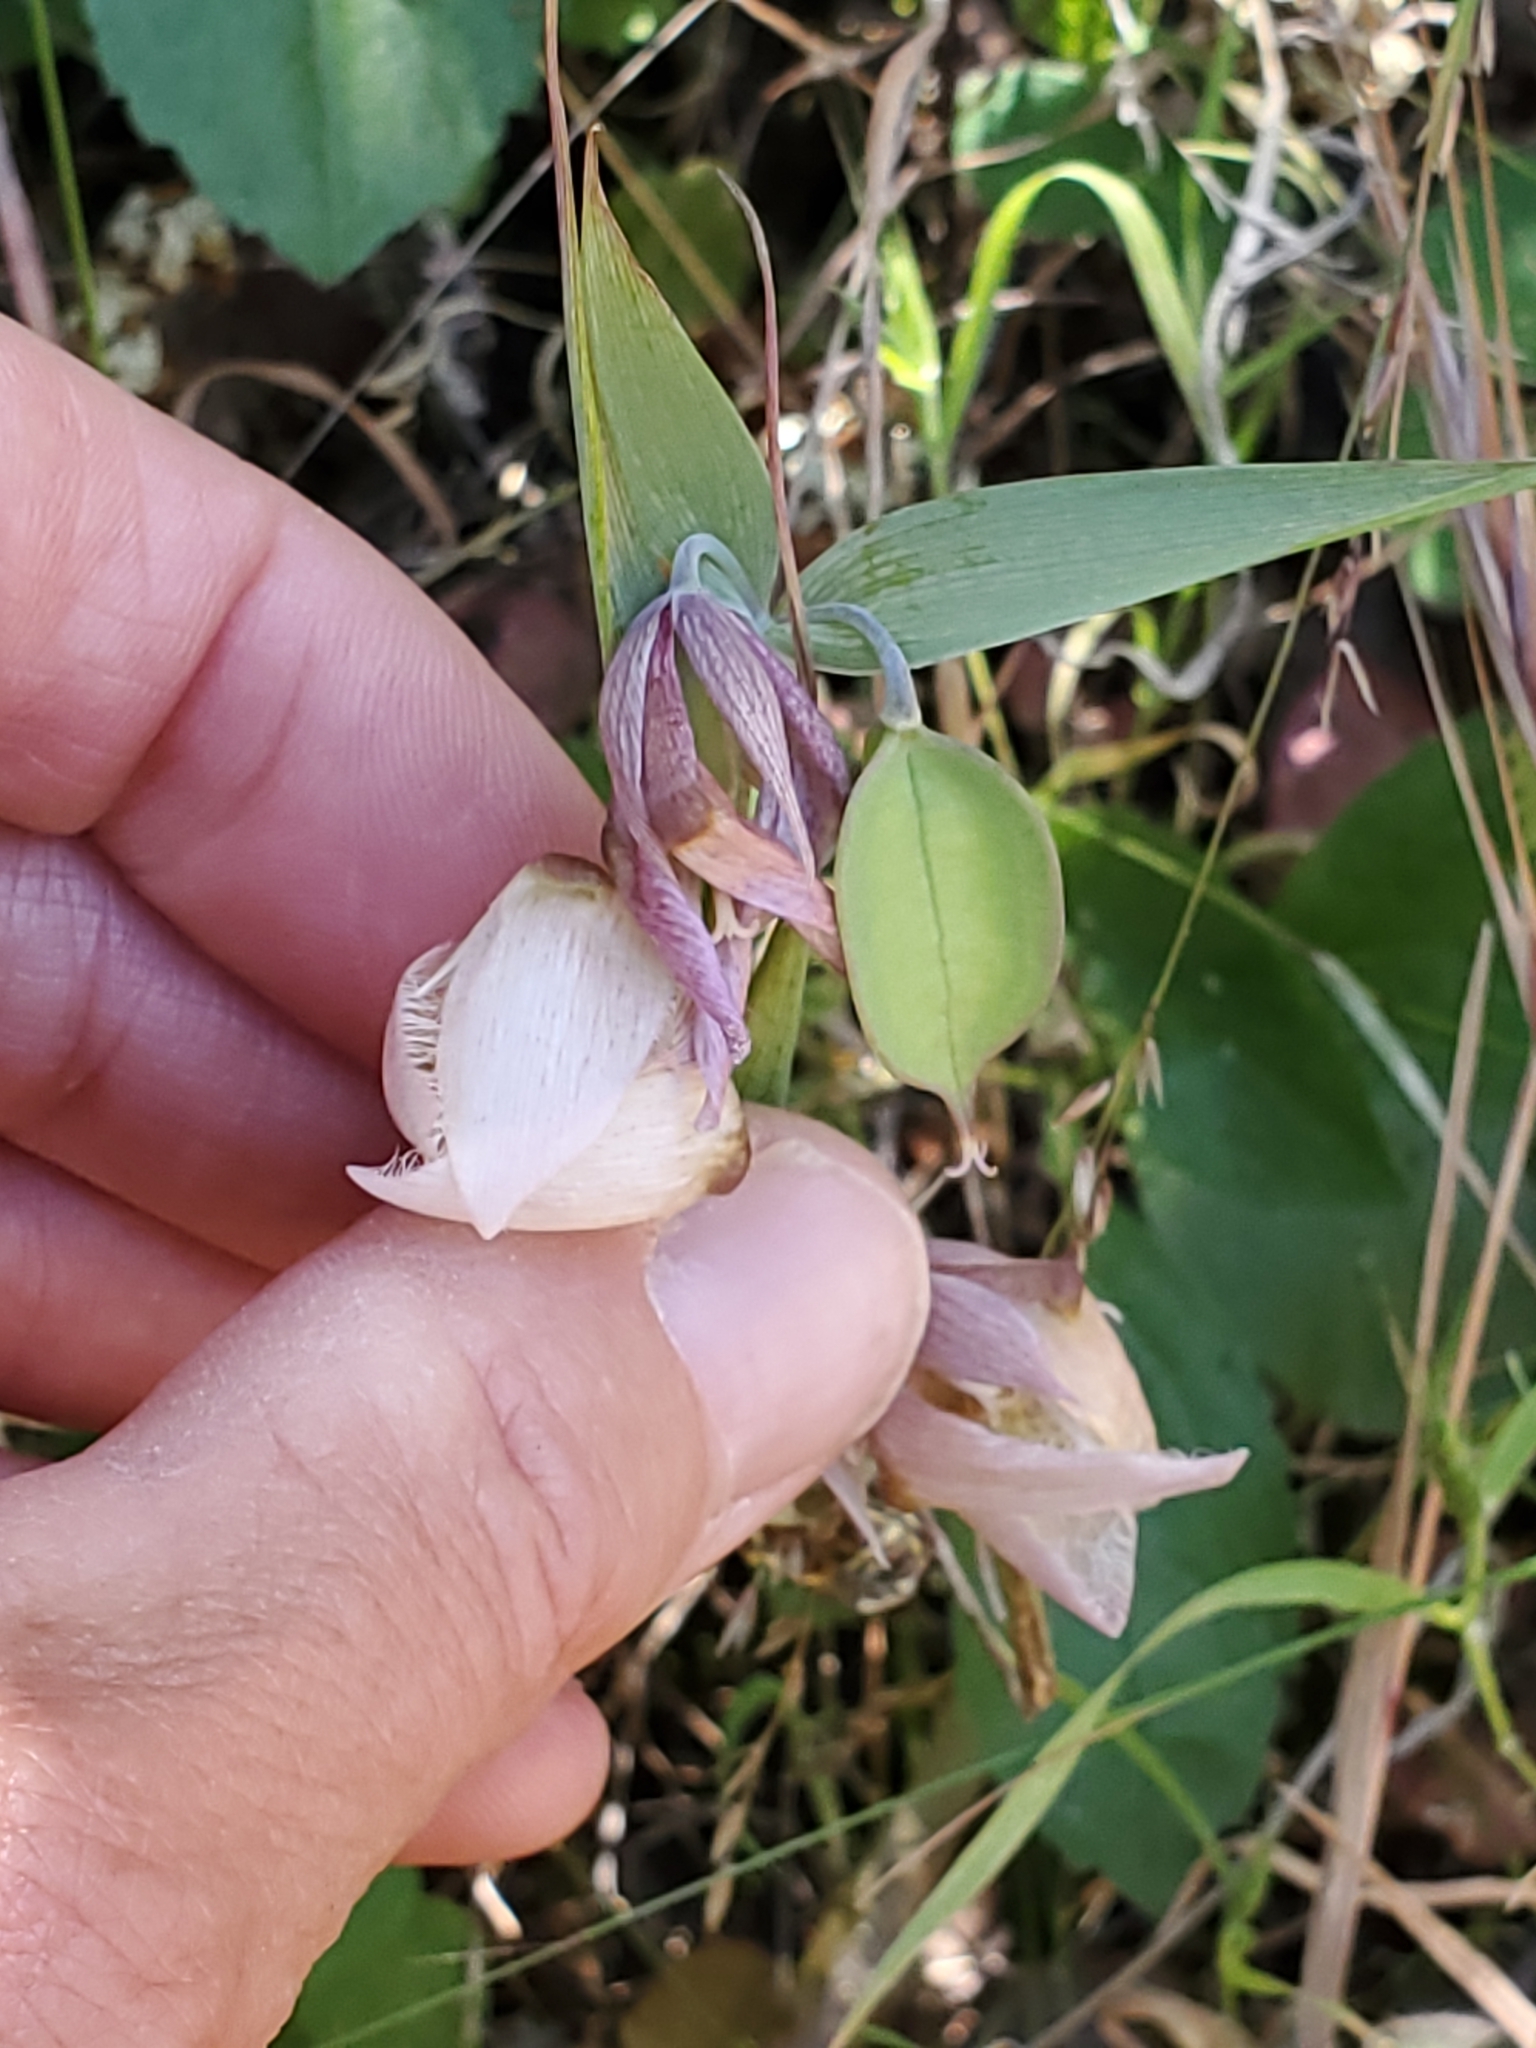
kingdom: Plantae
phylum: Tracheophyta
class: Liliopsida
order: Liliales
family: Liliaceae
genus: Calochortus
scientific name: Calochortus albus
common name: Fairy-lantern
